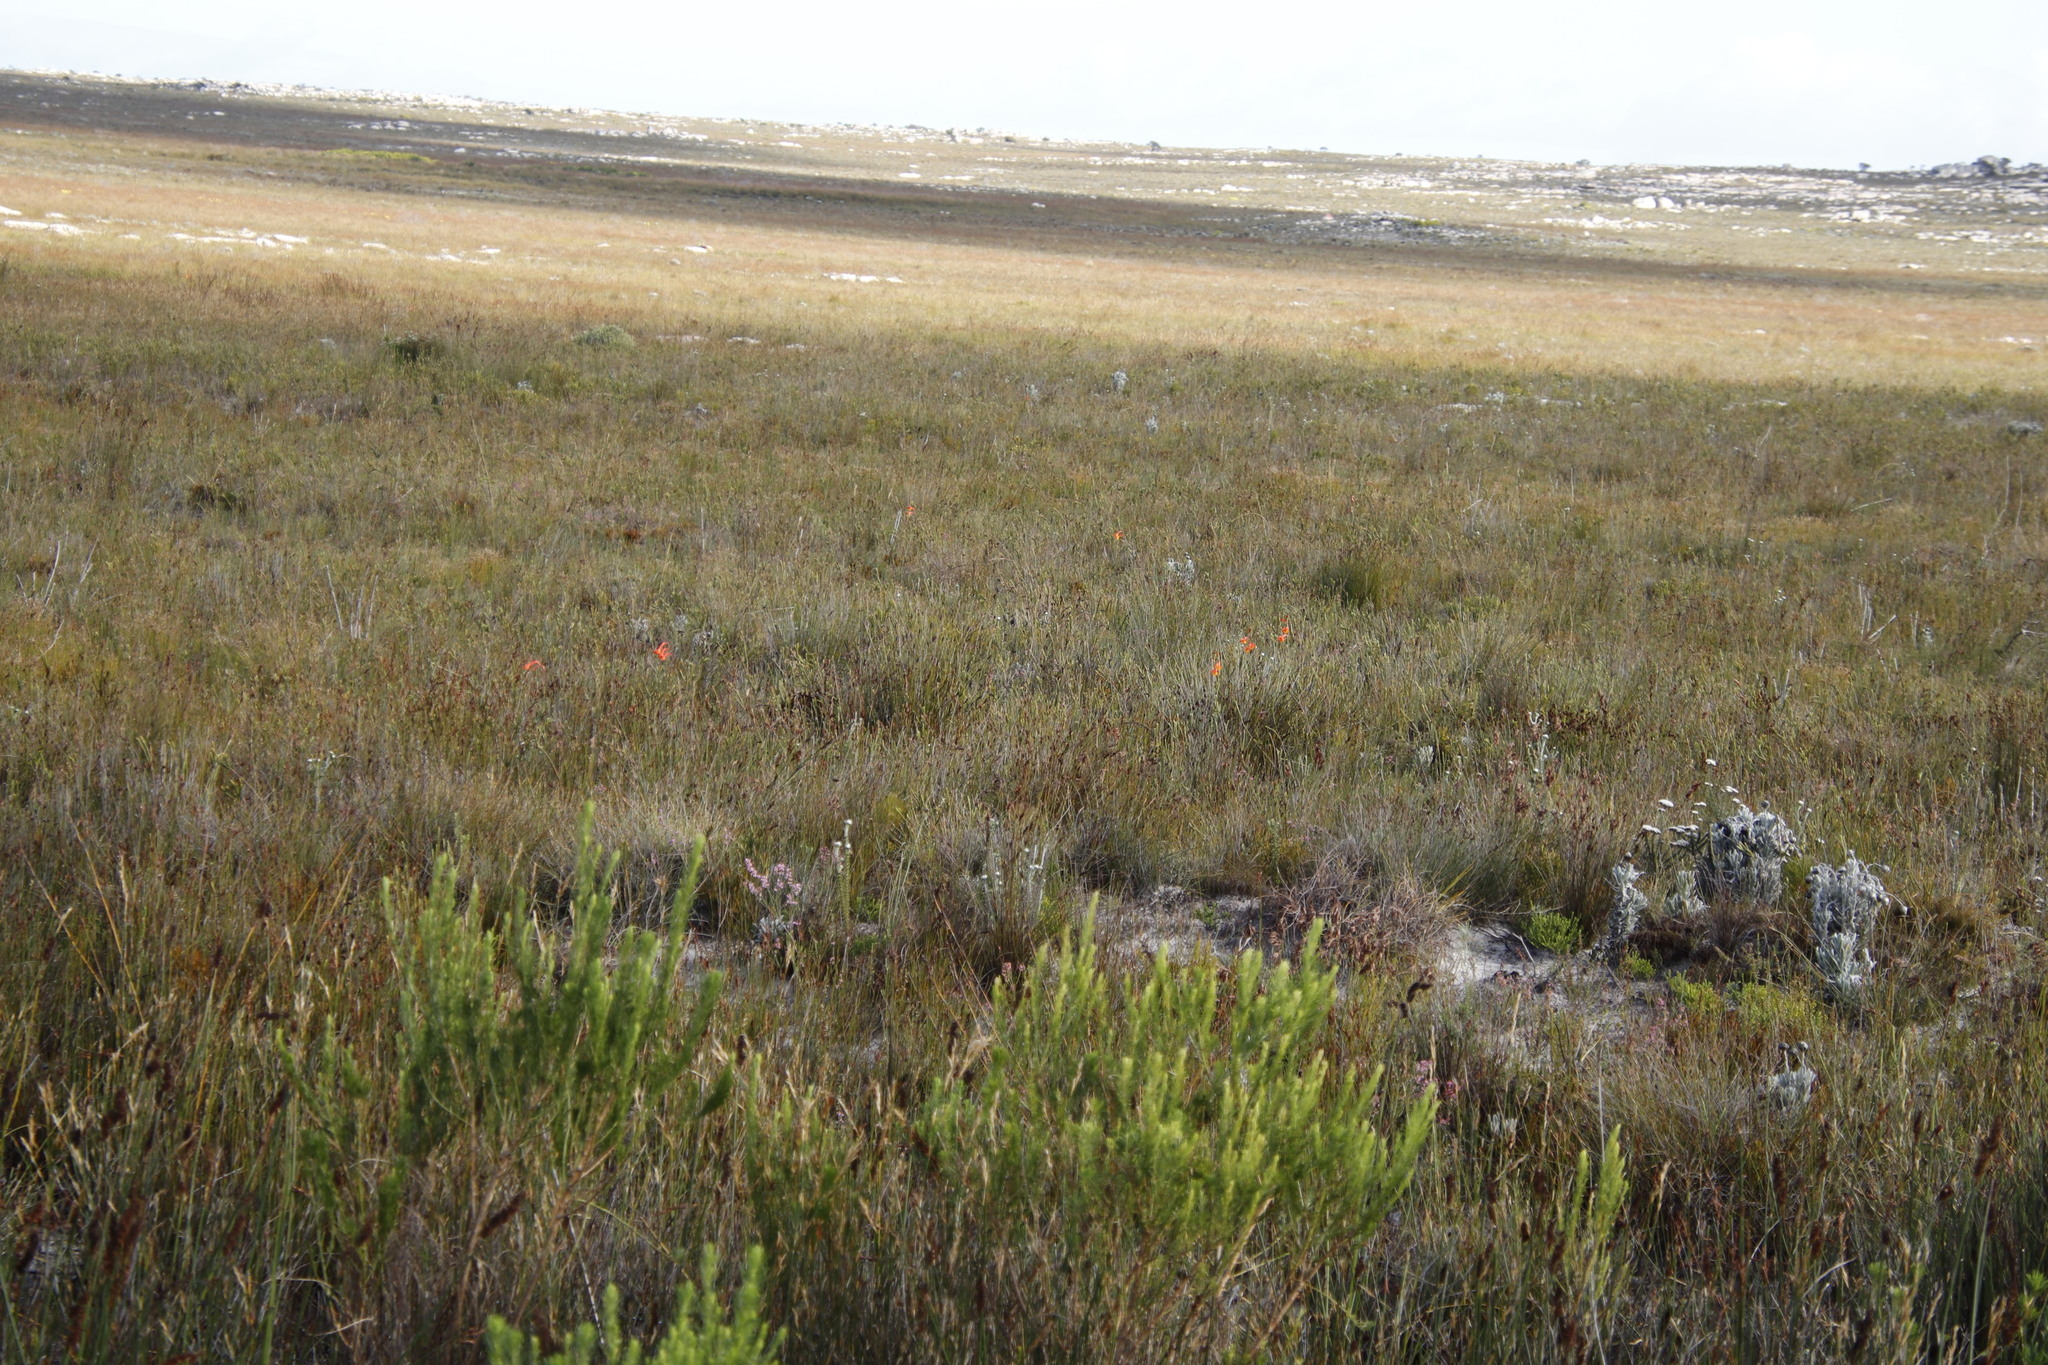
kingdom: Plantae
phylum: Tracheophyta
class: Liliopsida
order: Asparagales
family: Iridaceae
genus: Gladiolus
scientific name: Gladiolus merianellus
